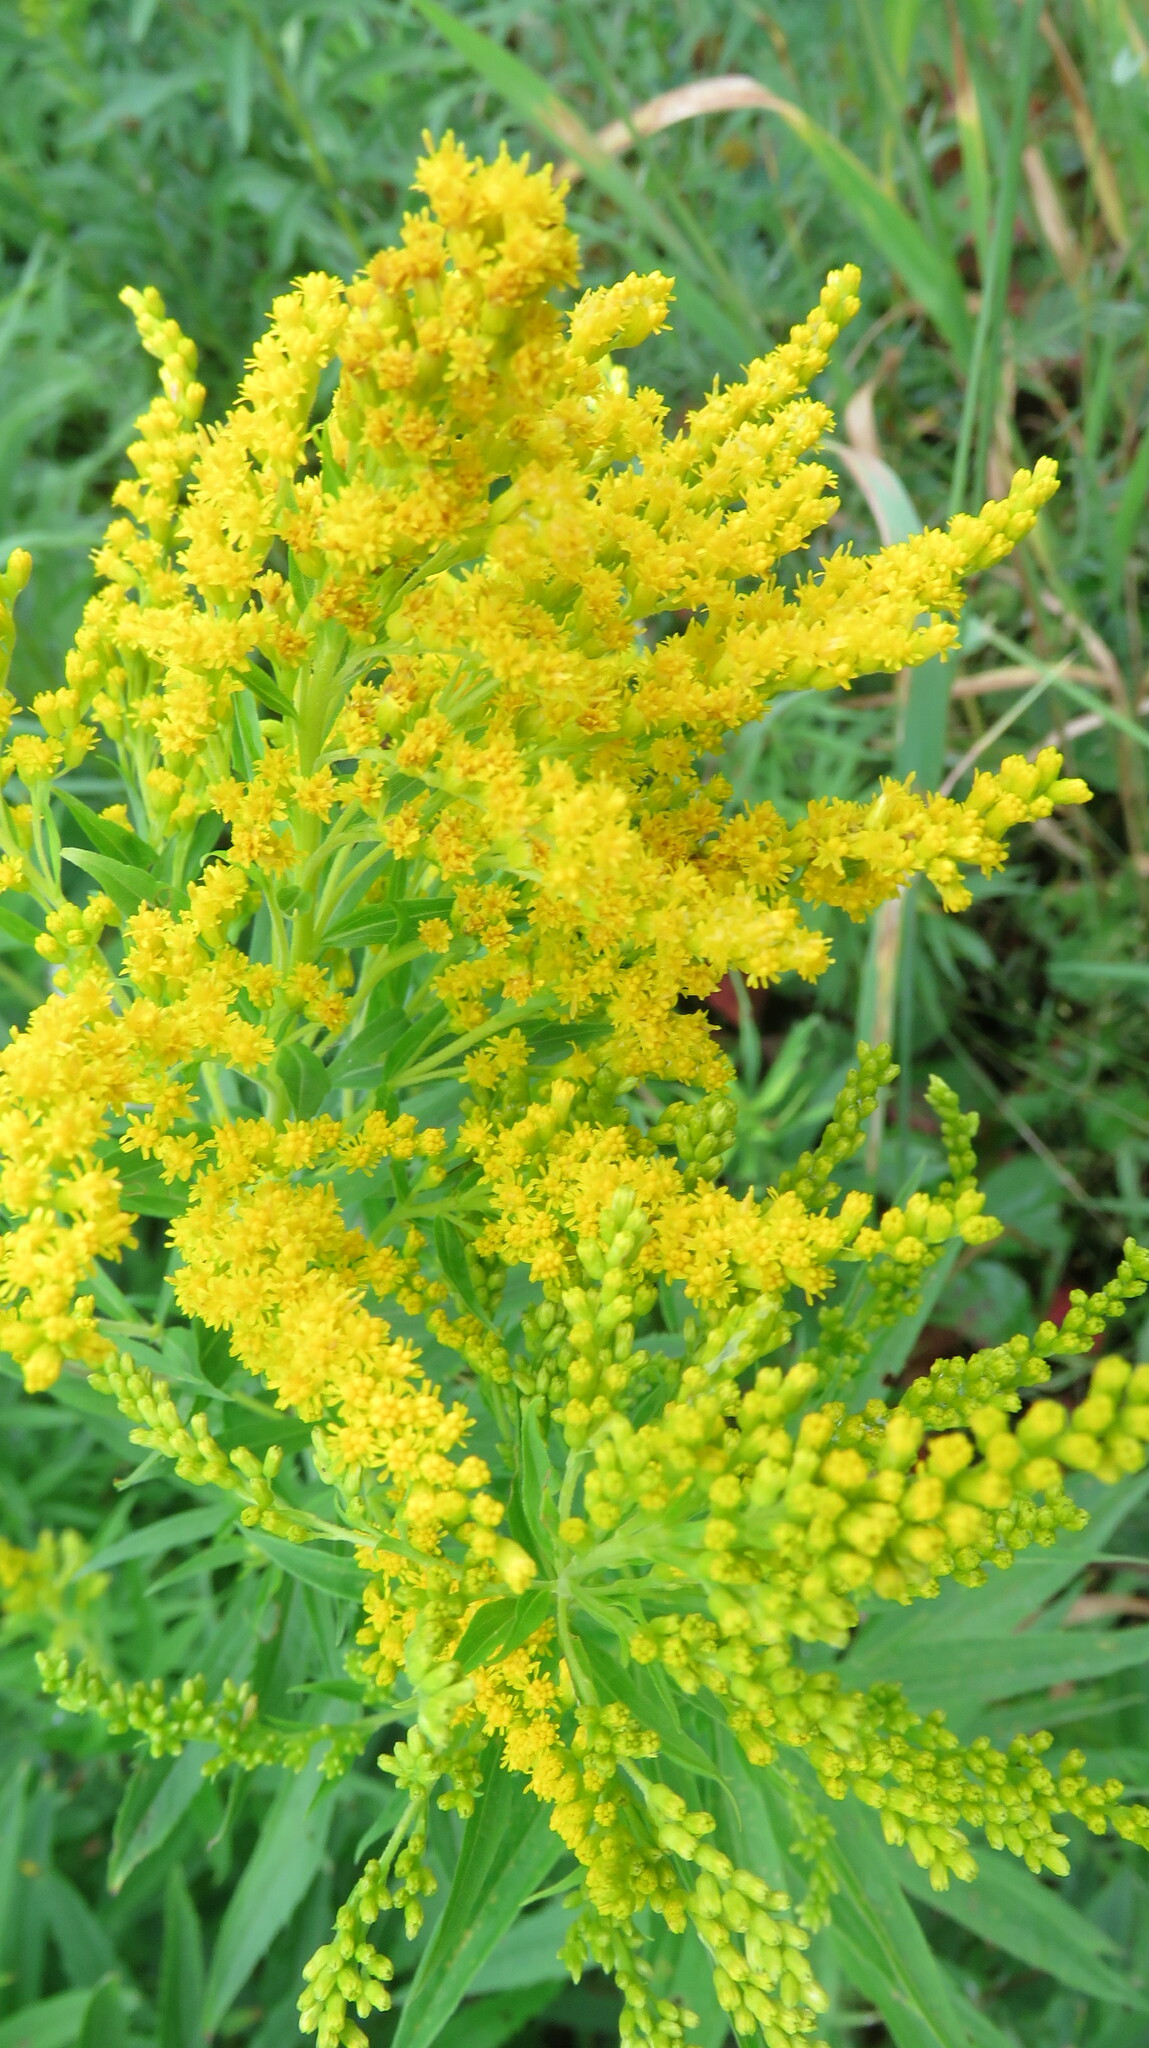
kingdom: Plantae
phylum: Tracheophyta
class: Magnoliopsida
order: Asterales
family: Asteraceae
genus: Solidago
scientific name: Solidago canadensis
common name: Canada goldenrod
